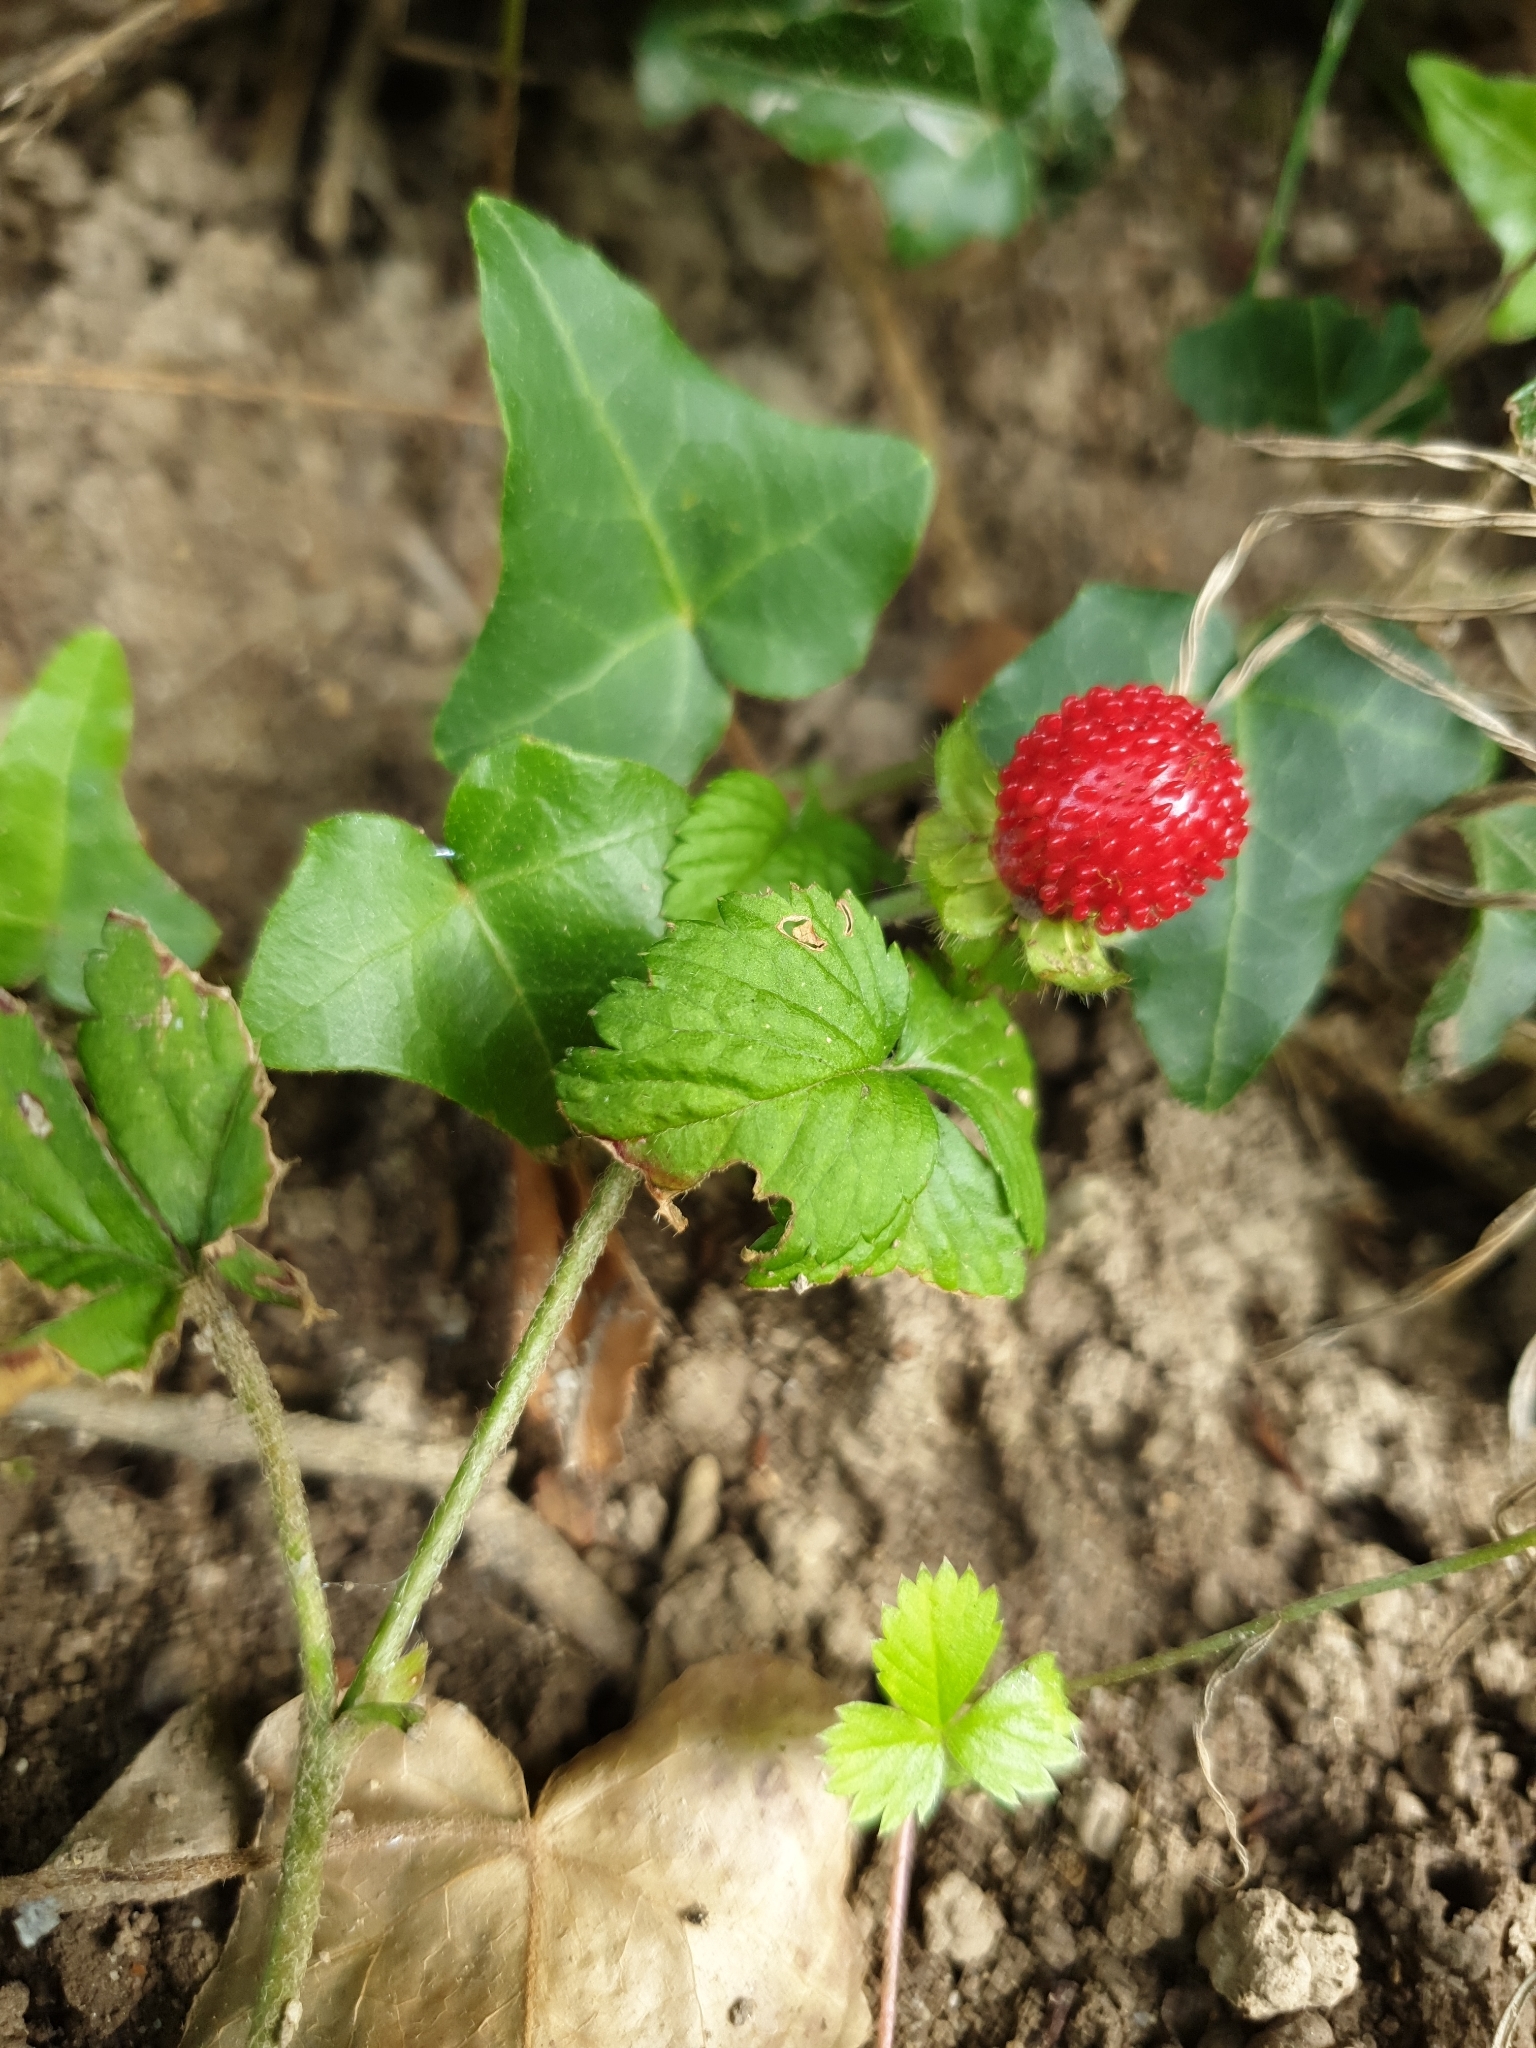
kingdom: Plantae
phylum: Tracheophyta
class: Magnoliopsida
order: Rosales
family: Rosaceae
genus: Potentilla
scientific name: Potentilla indica
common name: Yellow-flowered strawberry
